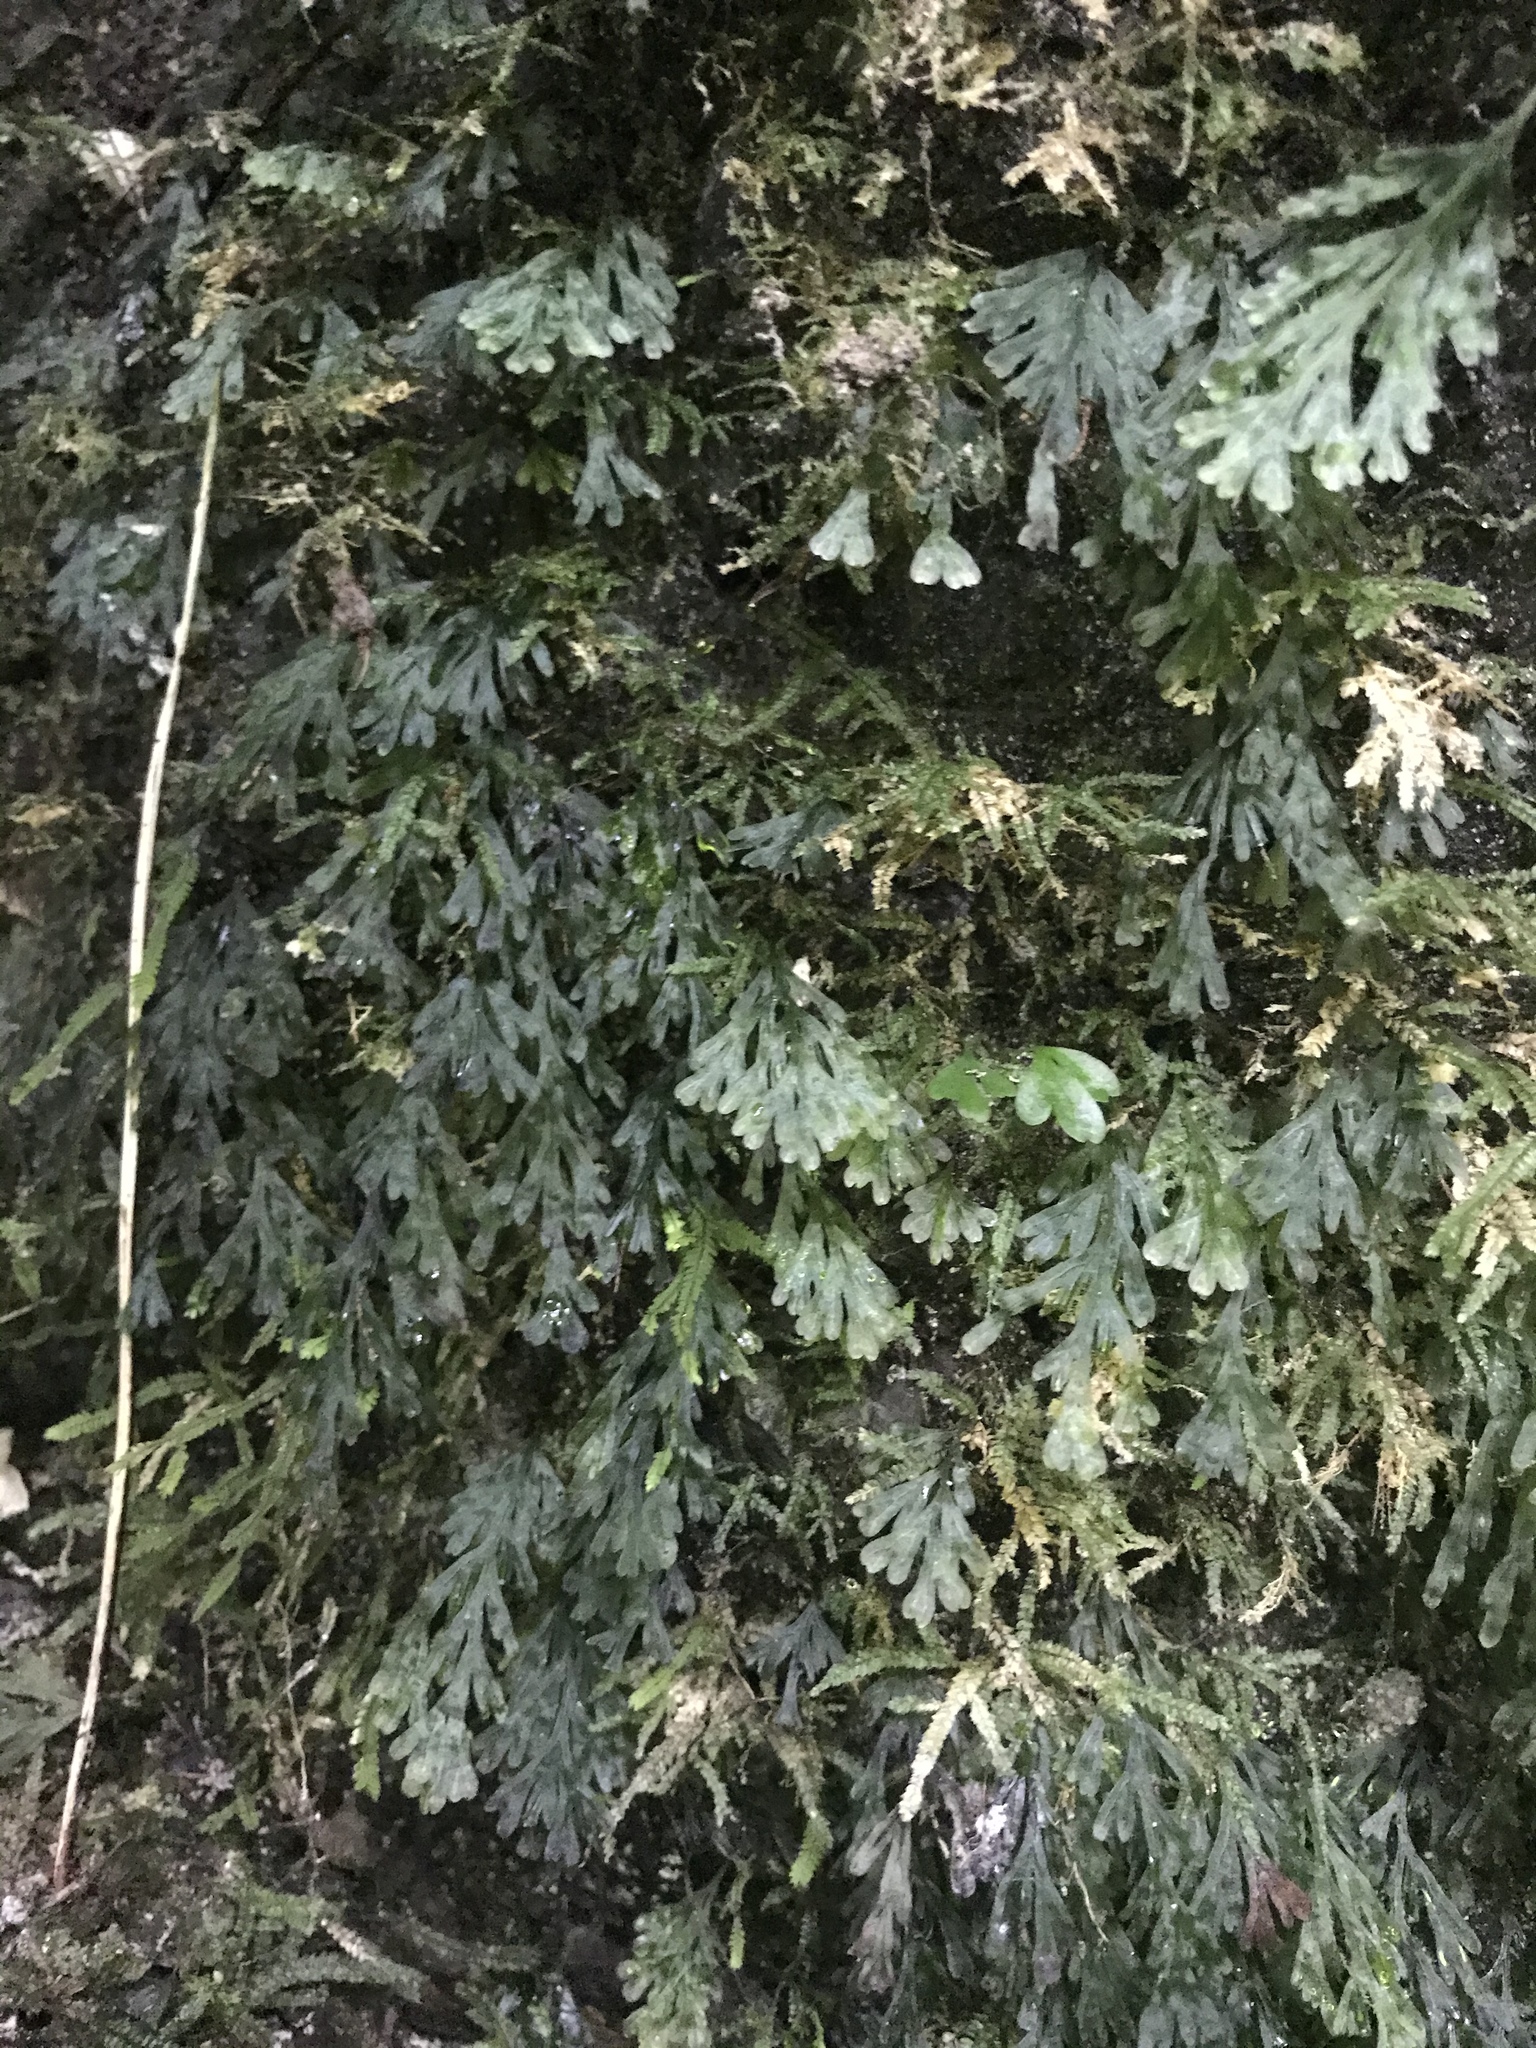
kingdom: Plantae
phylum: Tracheophyta
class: Polypodiopsida
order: Hymenophyllales
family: Hymenophyllaceae
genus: Polyphlebium
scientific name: Polyphlebium endlicherianum
